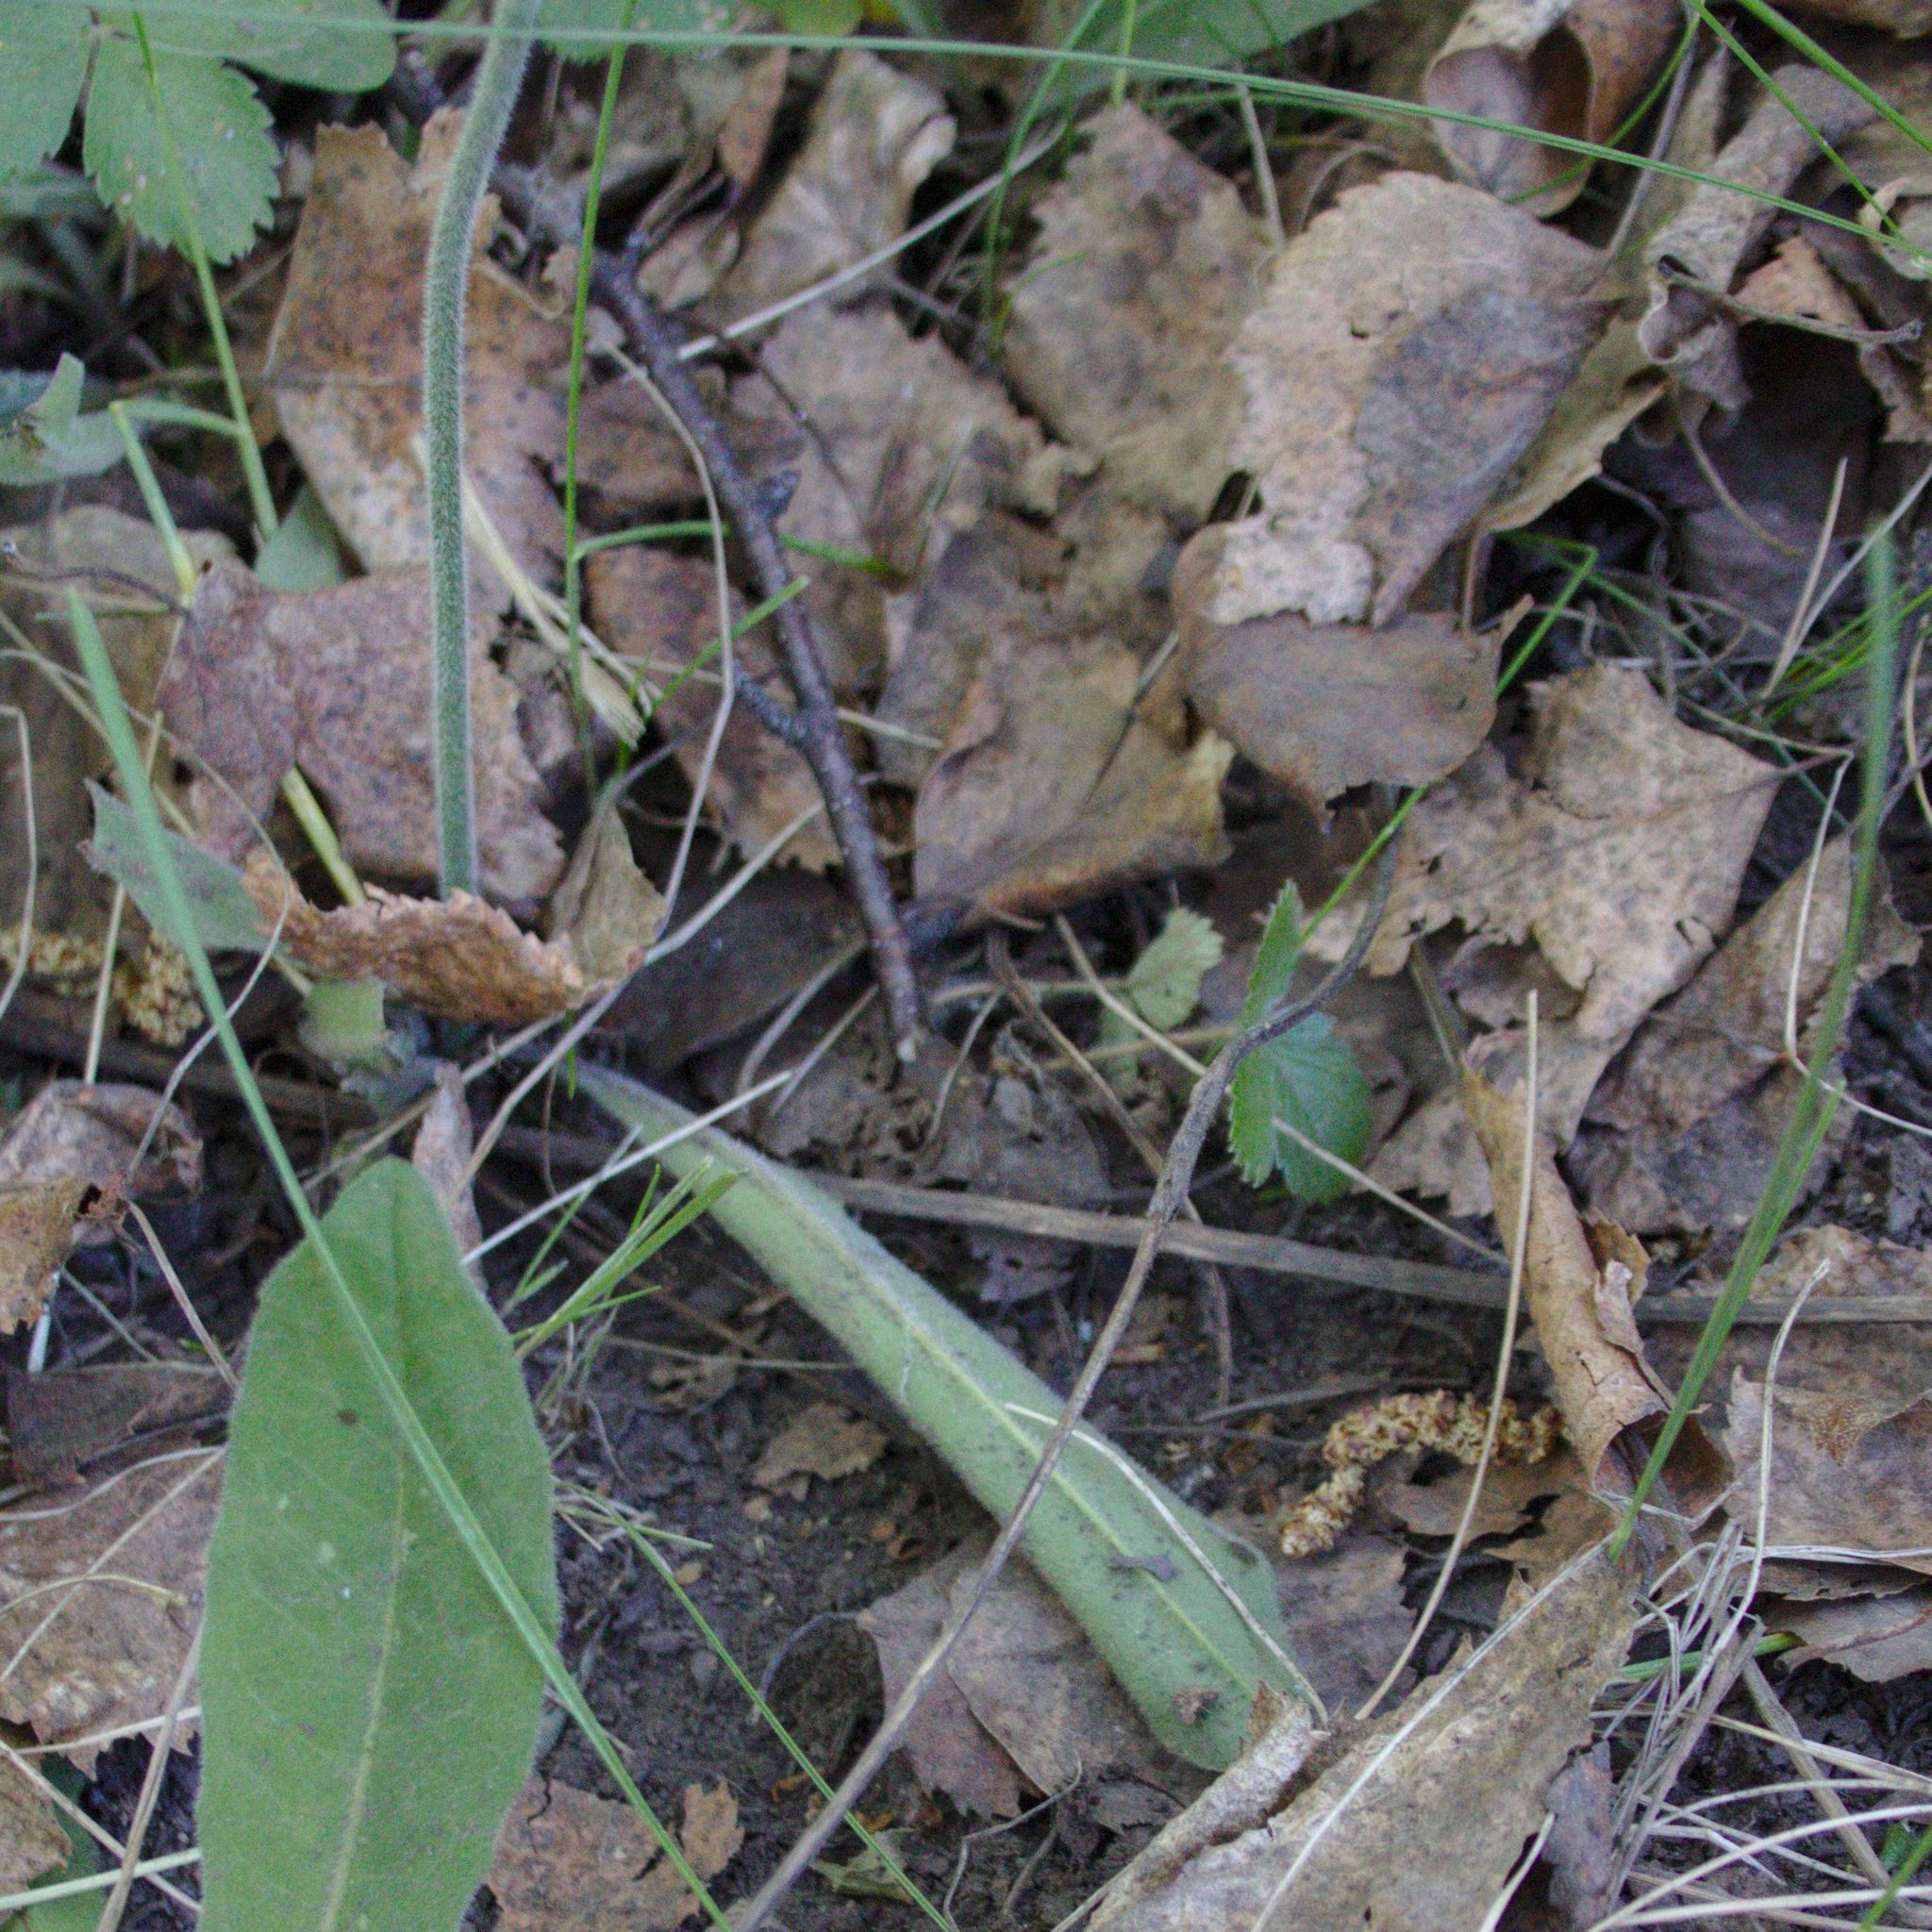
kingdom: Plantae
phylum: Tracheophyta
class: Magnoliopsida
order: Asterales
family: Asteraceae
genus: Crepis
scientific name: Crepis praemorsa
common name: Leafless hawk's-beard
